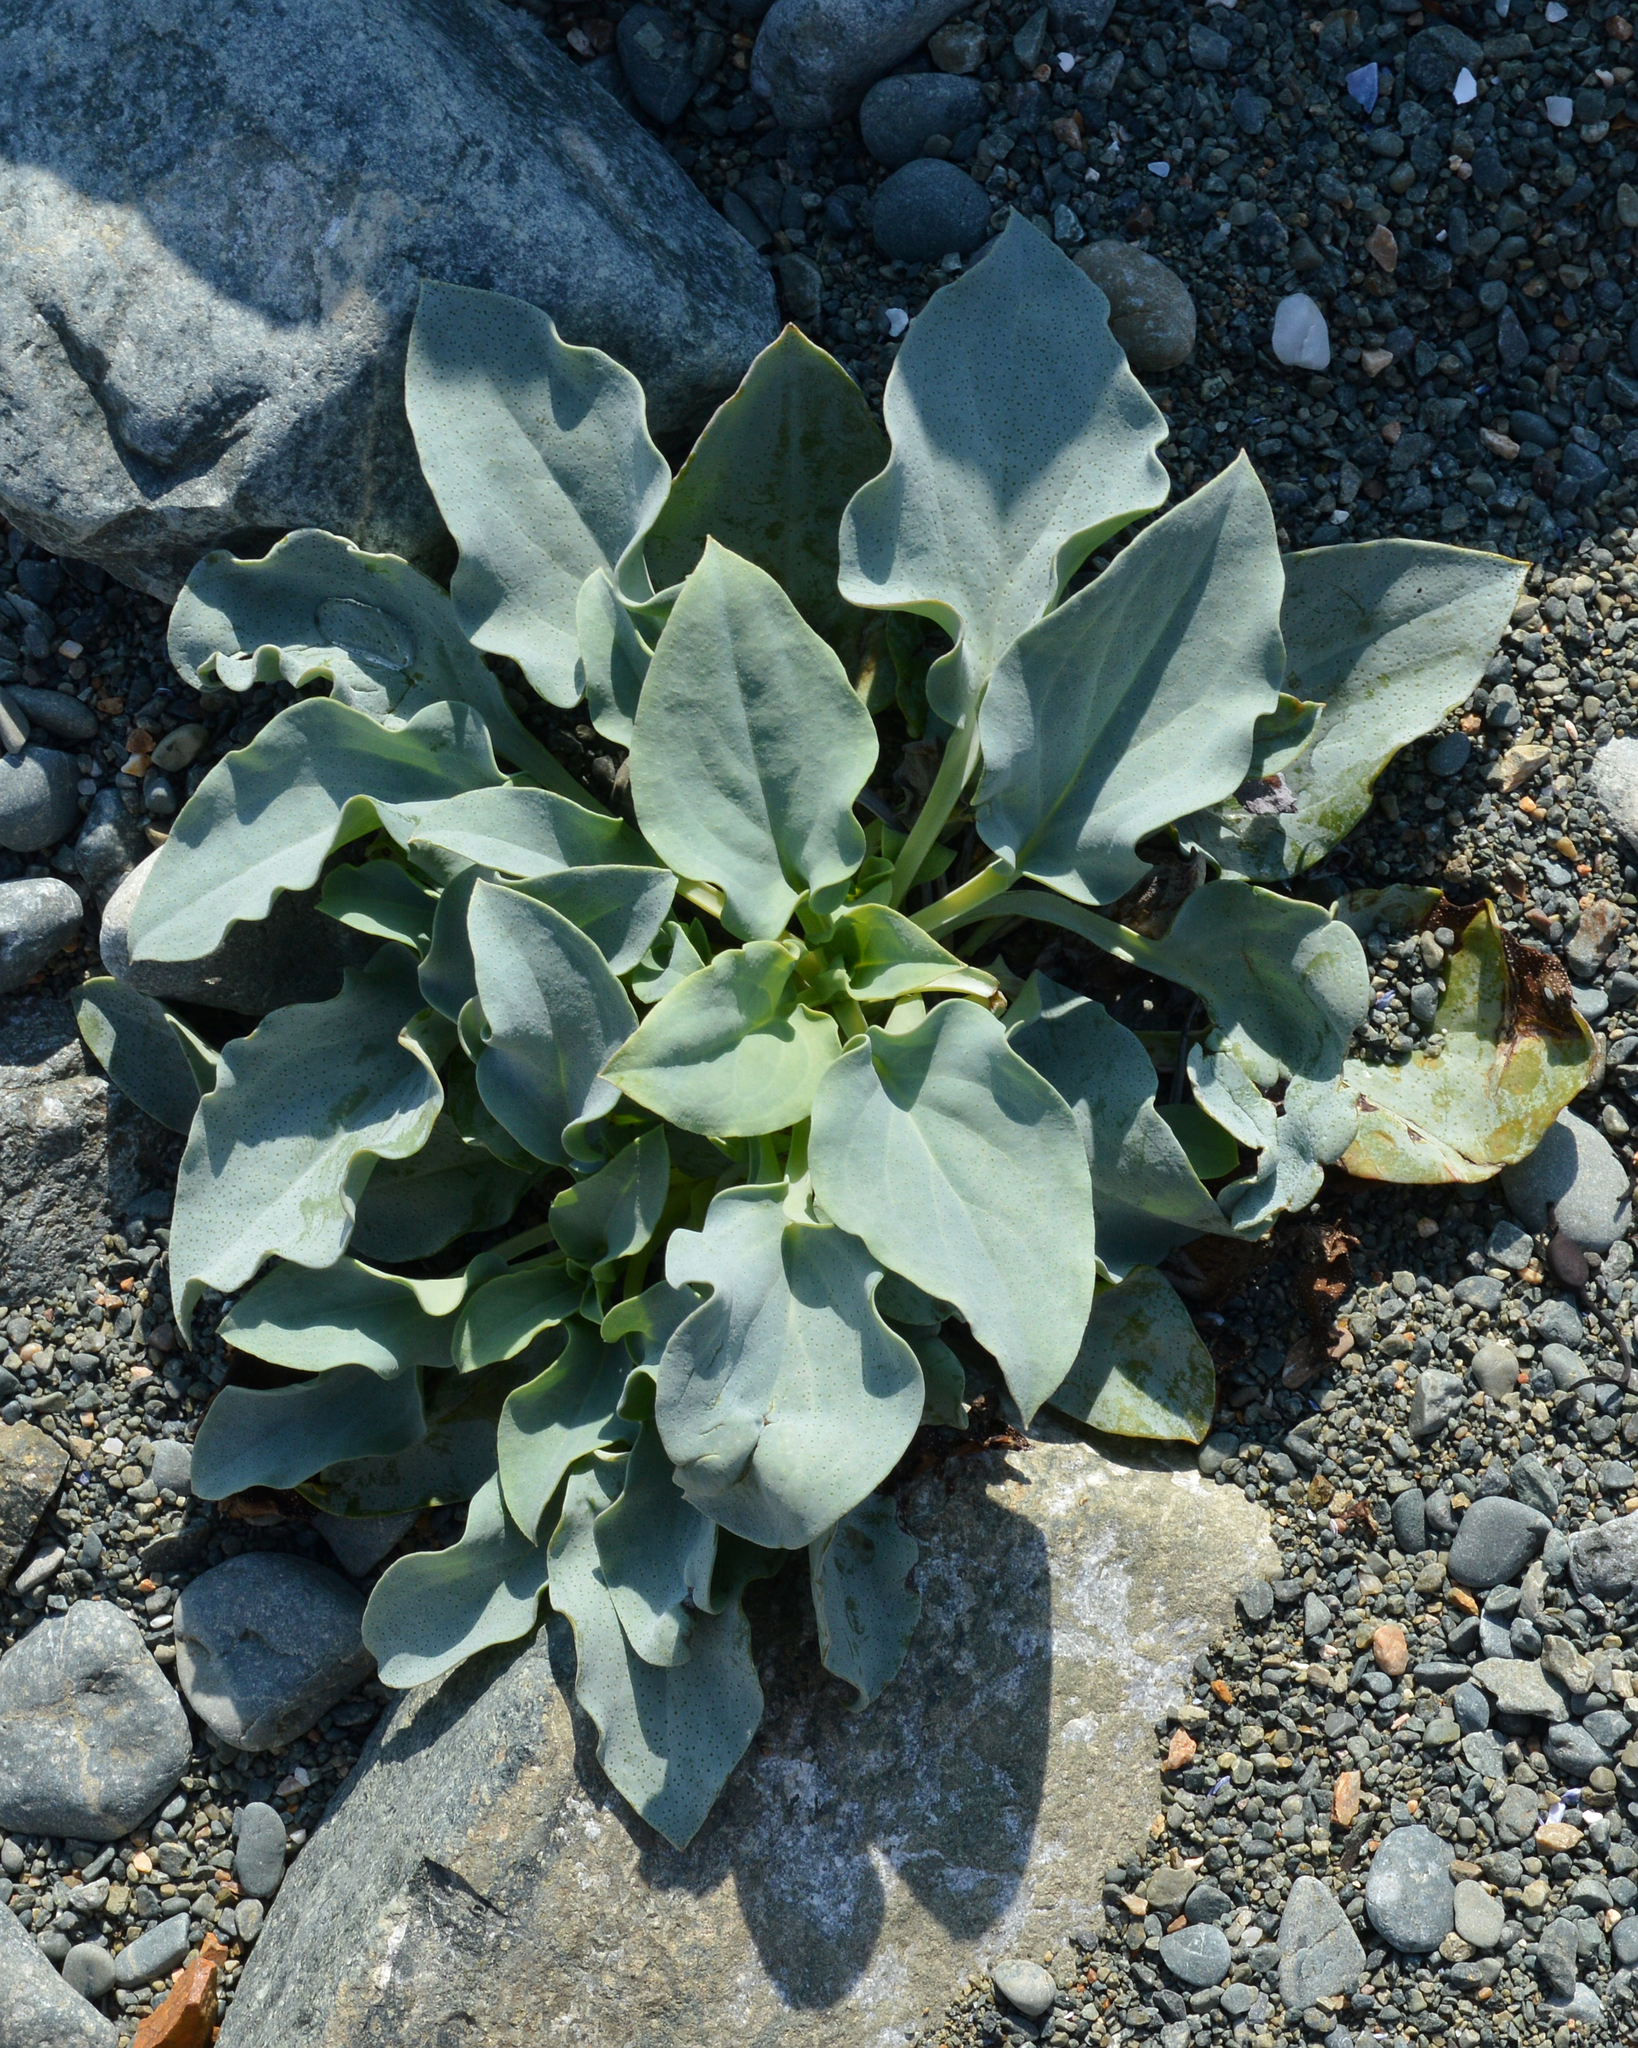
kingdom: Plantae
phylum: Tracheophyta
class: Magnoliopsida
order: Boraginales
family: Boraginaceae
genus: Mertensia
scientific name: Mertensia maritima
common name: Oysterplant
